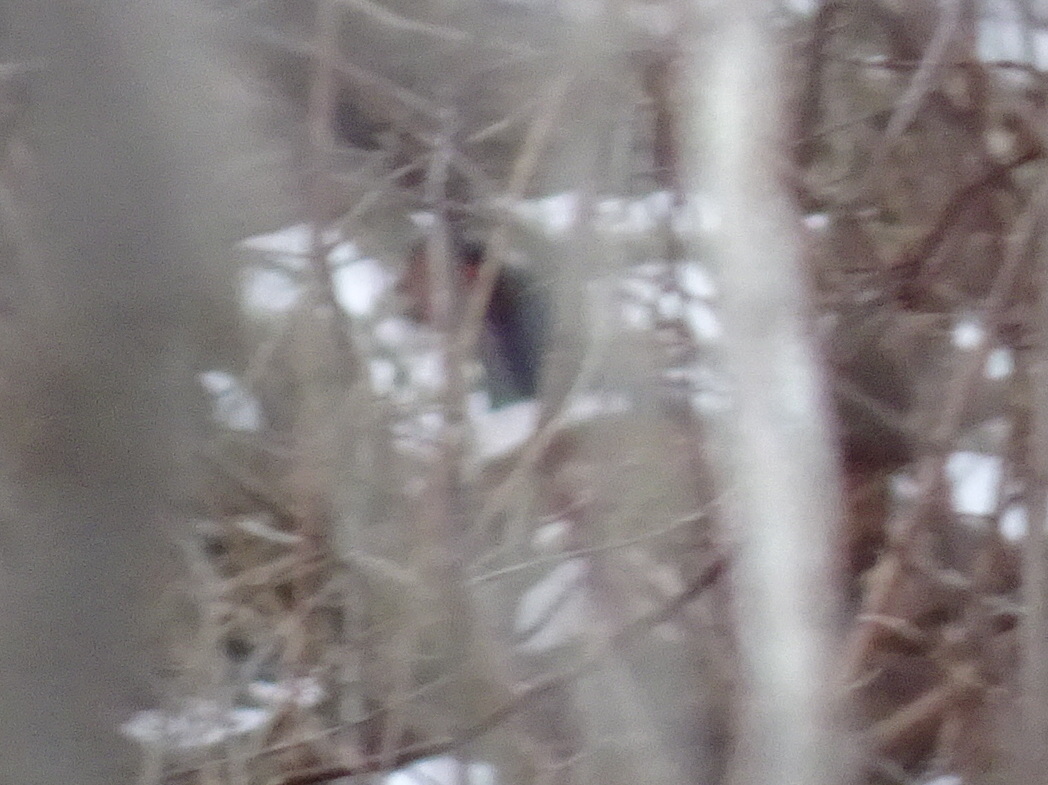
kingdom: Animalia
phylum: Chordata
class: Aves
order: Galliformes
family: Phasianidae
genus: Phasianus
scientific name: Phasianus colchicus
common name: Common pheasant
